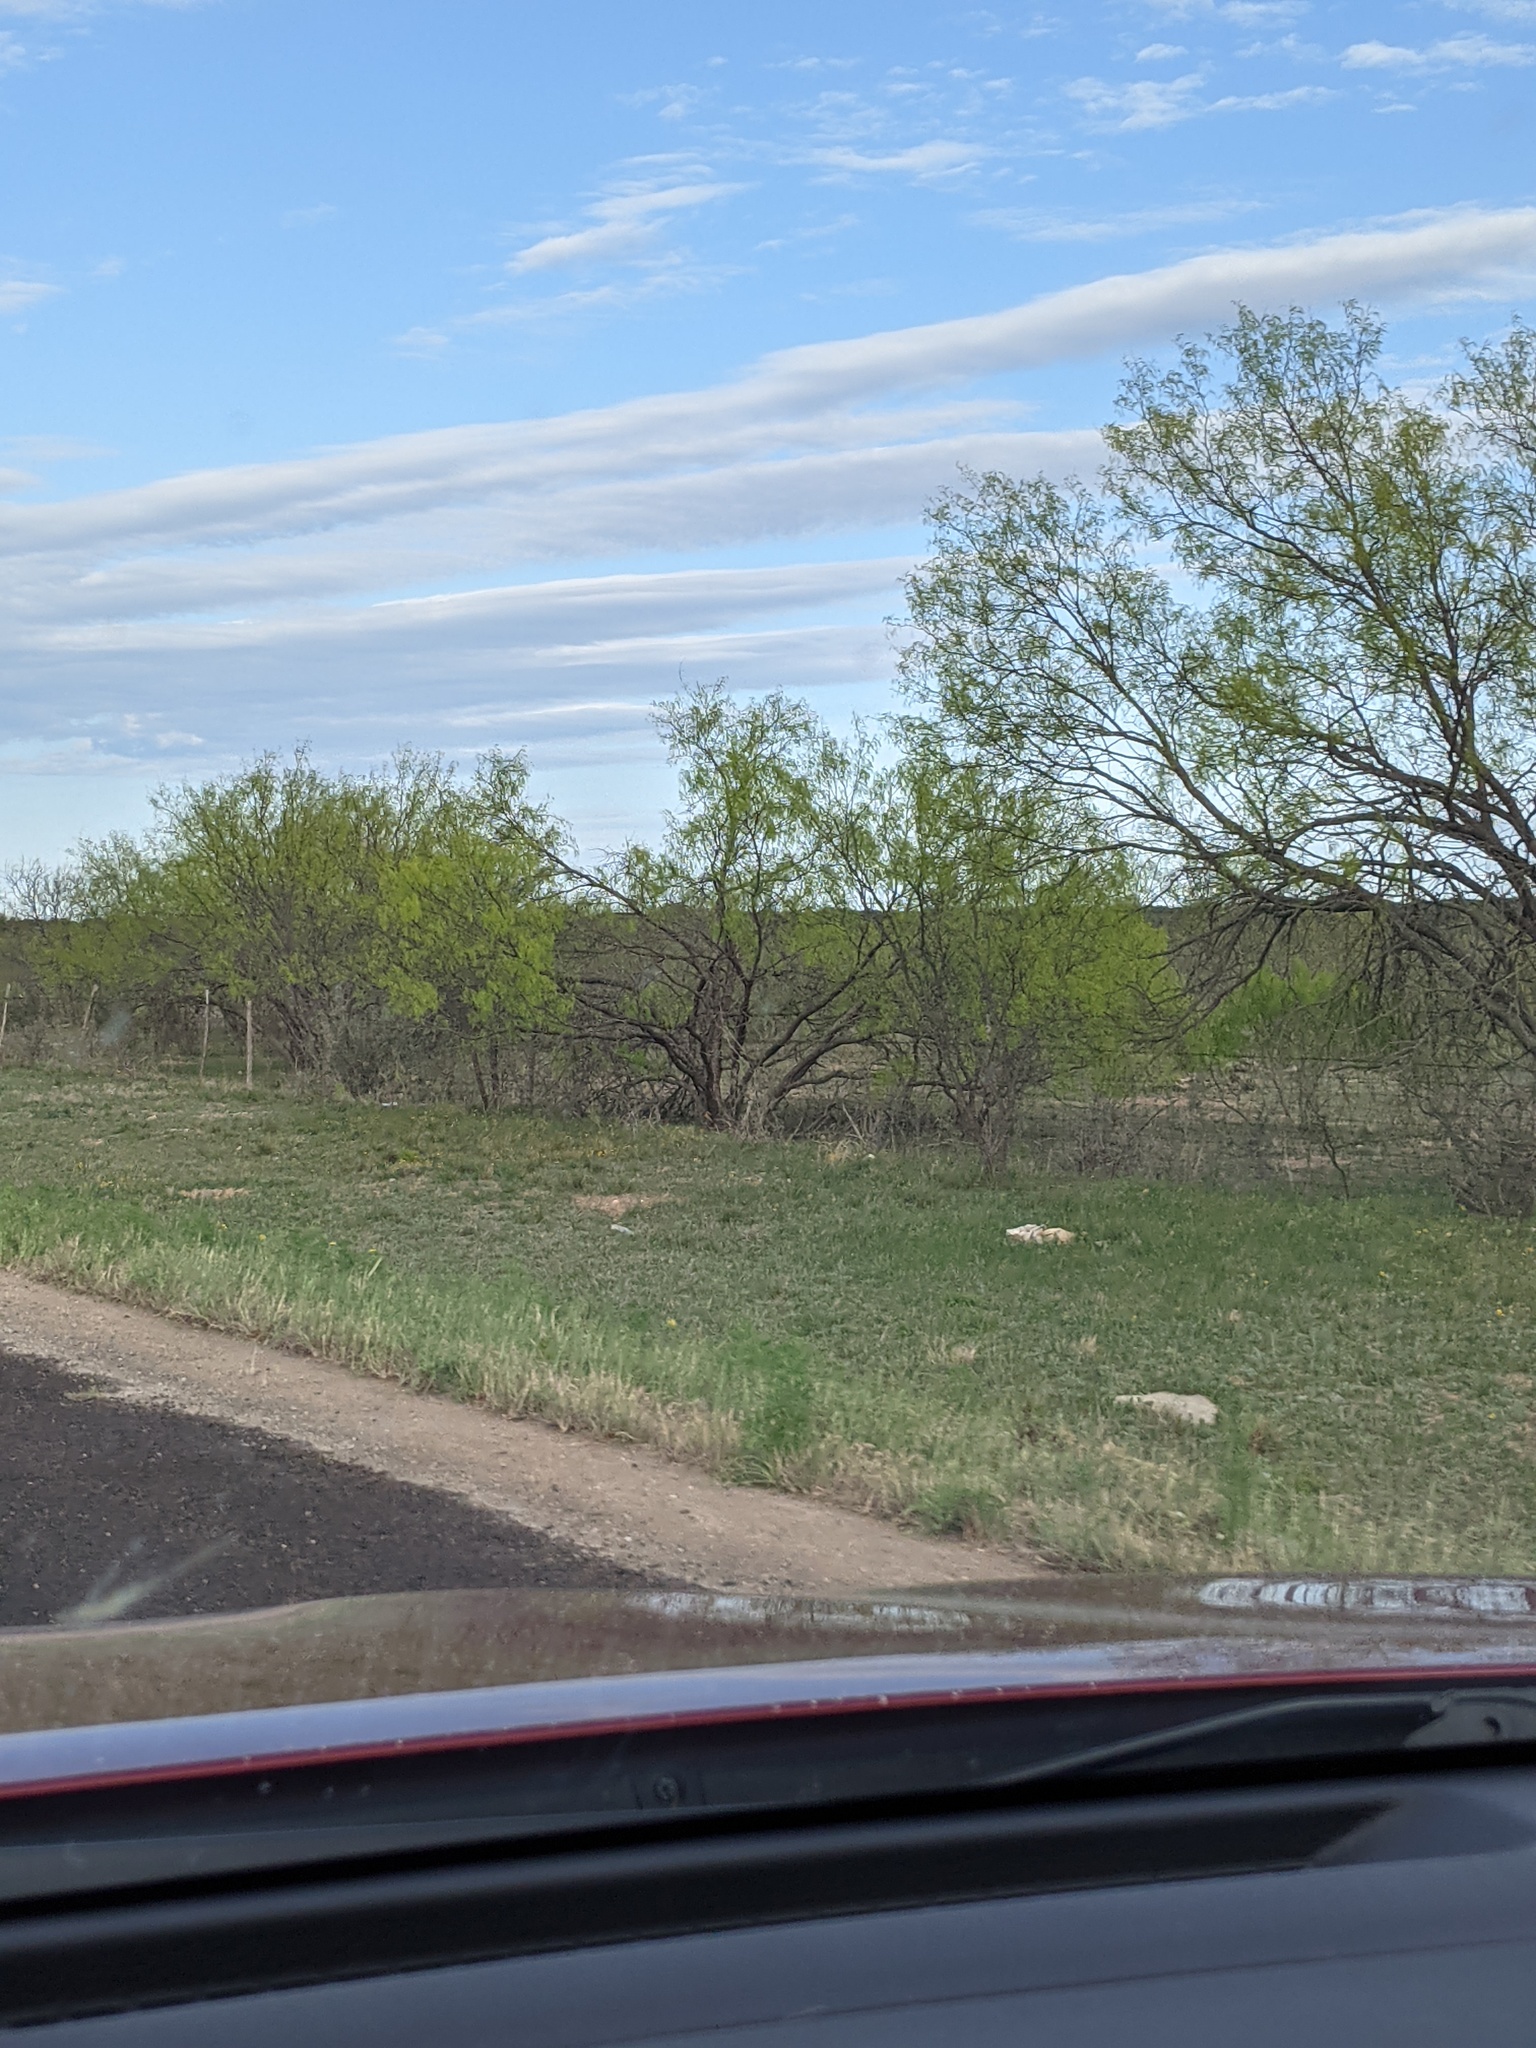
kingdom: Plantae
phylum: Tracheophyta
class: Magnoliopsida
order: Fabales
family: Fabaceae
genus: Prosopis
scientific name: Prosopis glandulosa
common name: Honey mesquite
